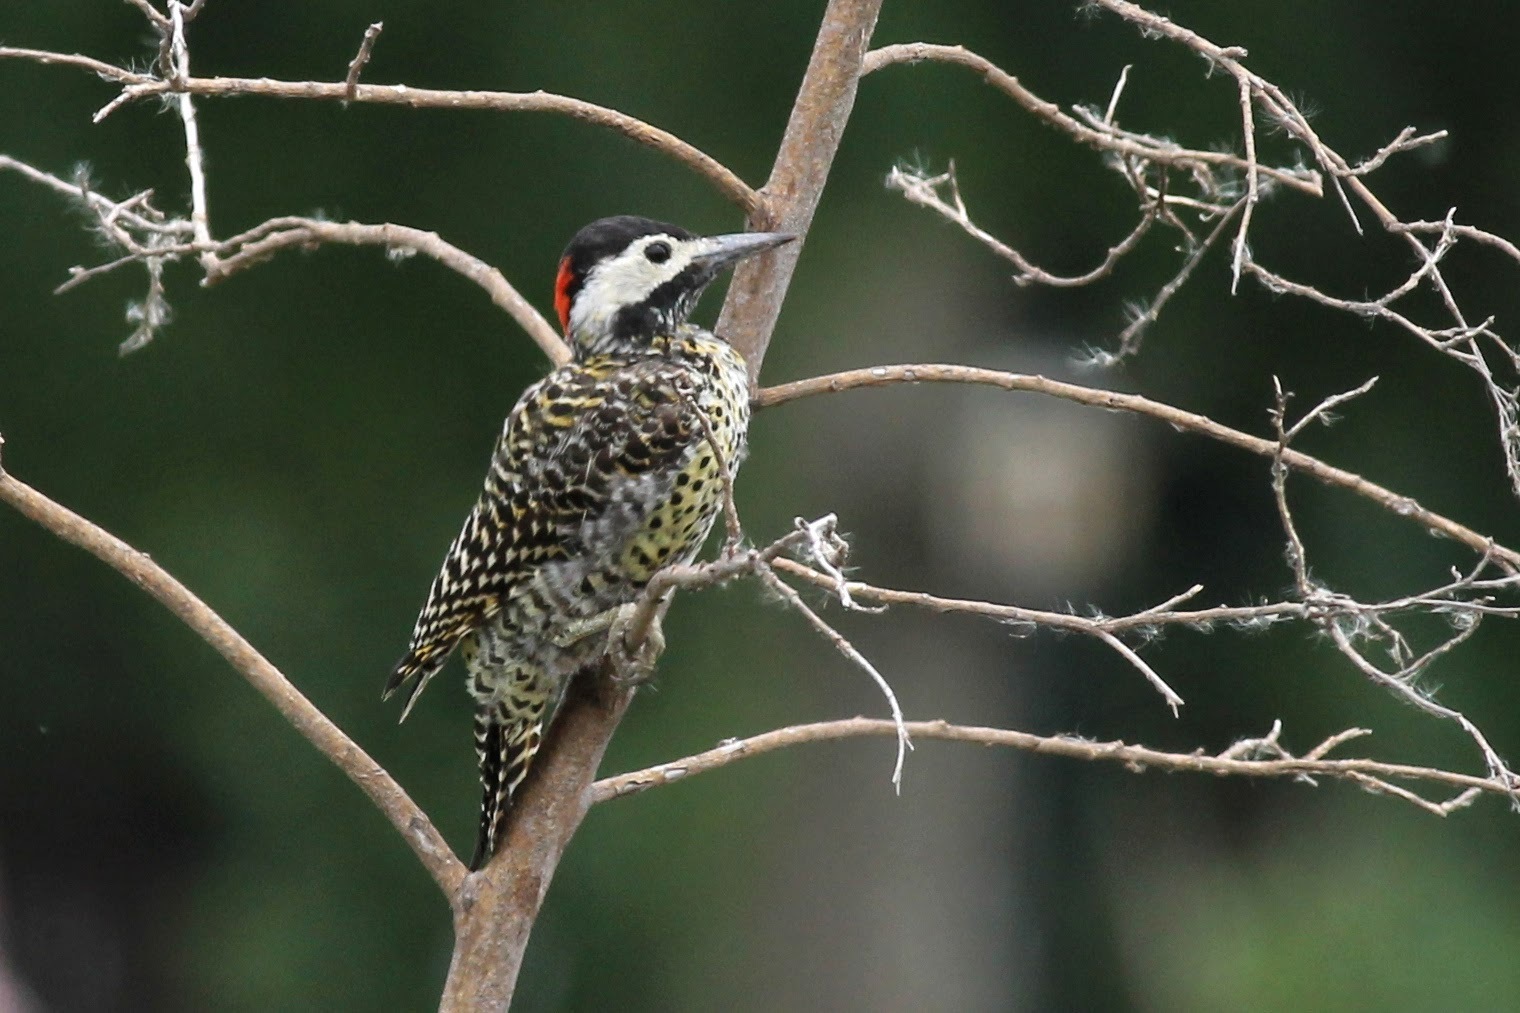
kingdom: Animalia
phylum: Chordata
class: Aves
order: Piciformes
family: Picidae
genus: Colaptes
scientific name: Colaptes melanochloros
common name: Green-barred woodpecker
